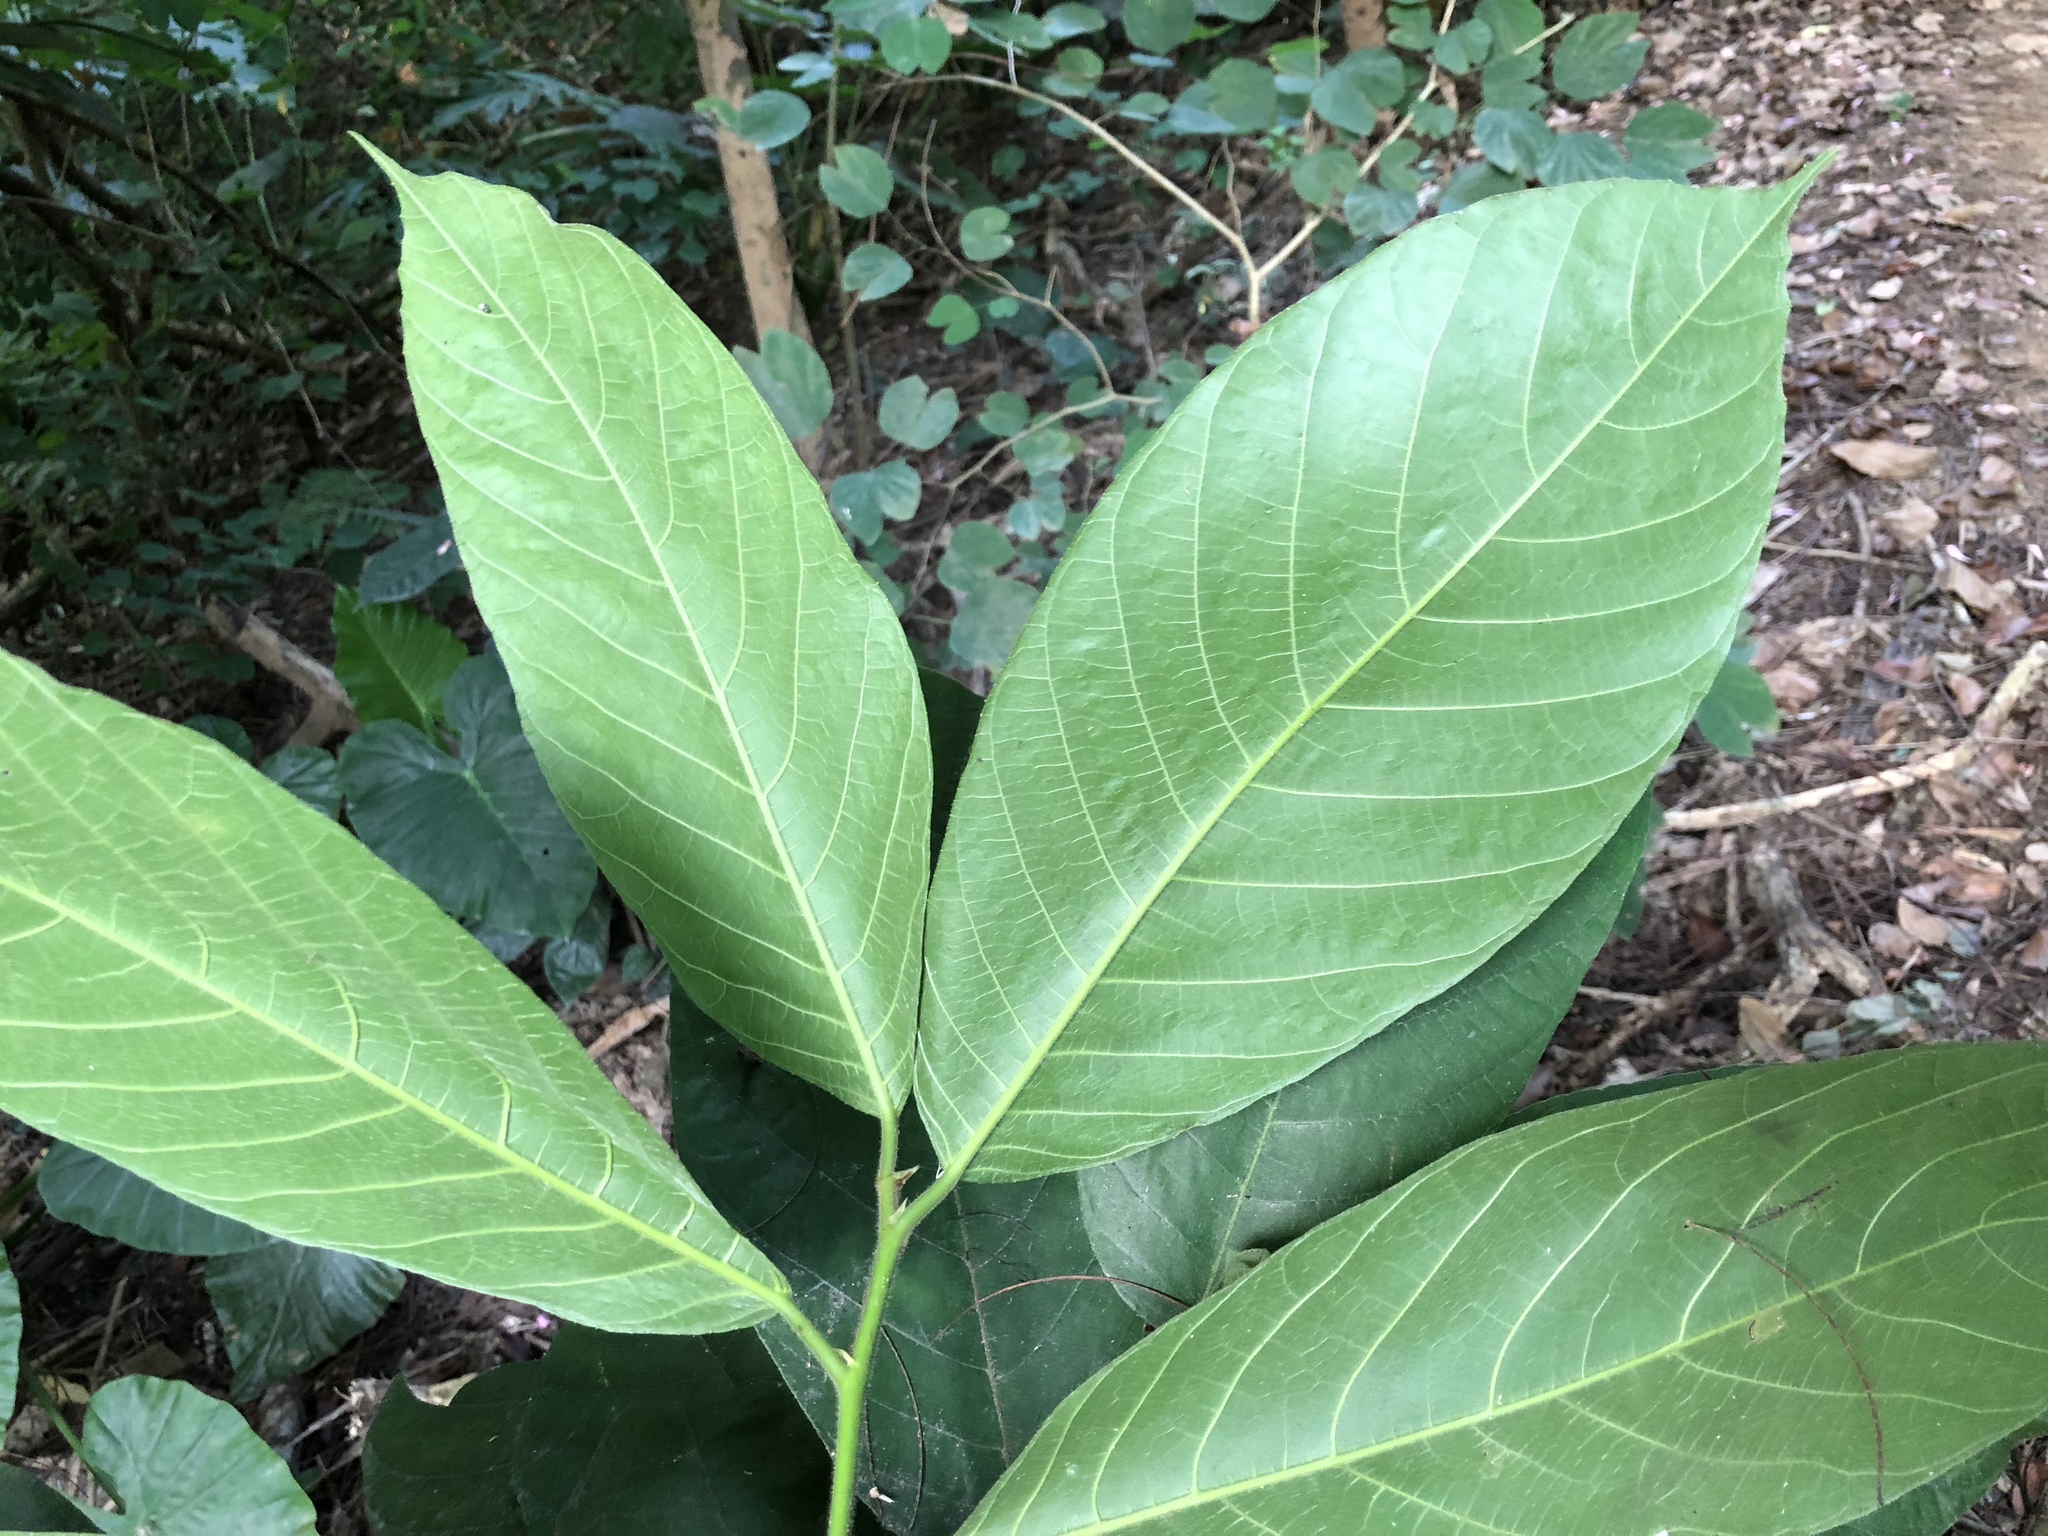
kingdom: Plantae
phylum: Tracheophyta
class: Magnoliopsida
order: Rosales
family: Moraceae
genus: Artocarpus
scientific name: Artocarpus rigidus
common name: Monkey-jack
